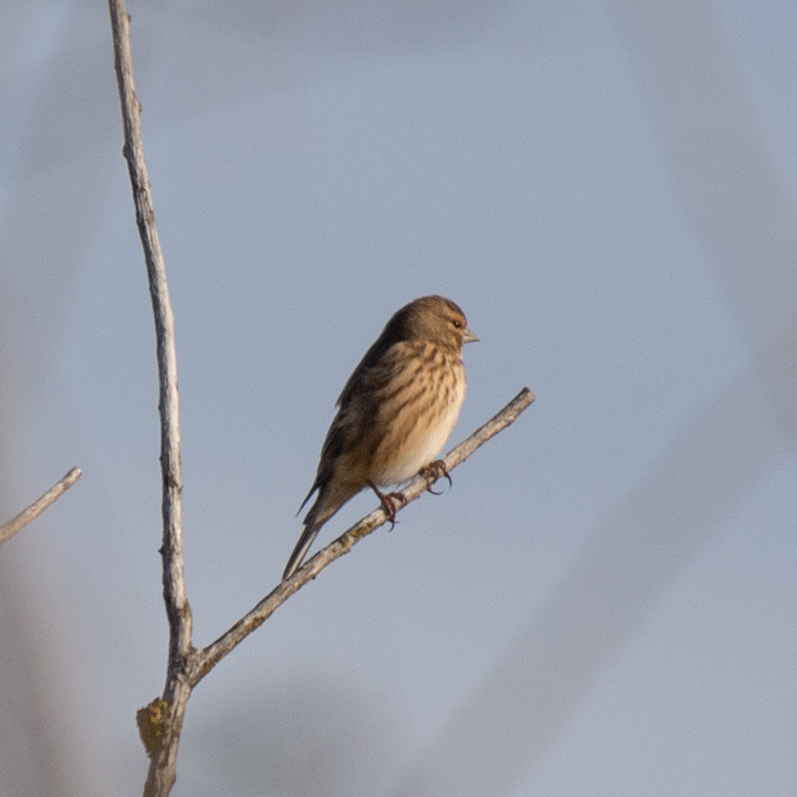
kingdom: Animalia
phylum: Chordata
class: Aves
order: Passeriformes
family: Fringillidae
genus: Linaria
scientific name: Linaria cannabina
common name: Common linnet
